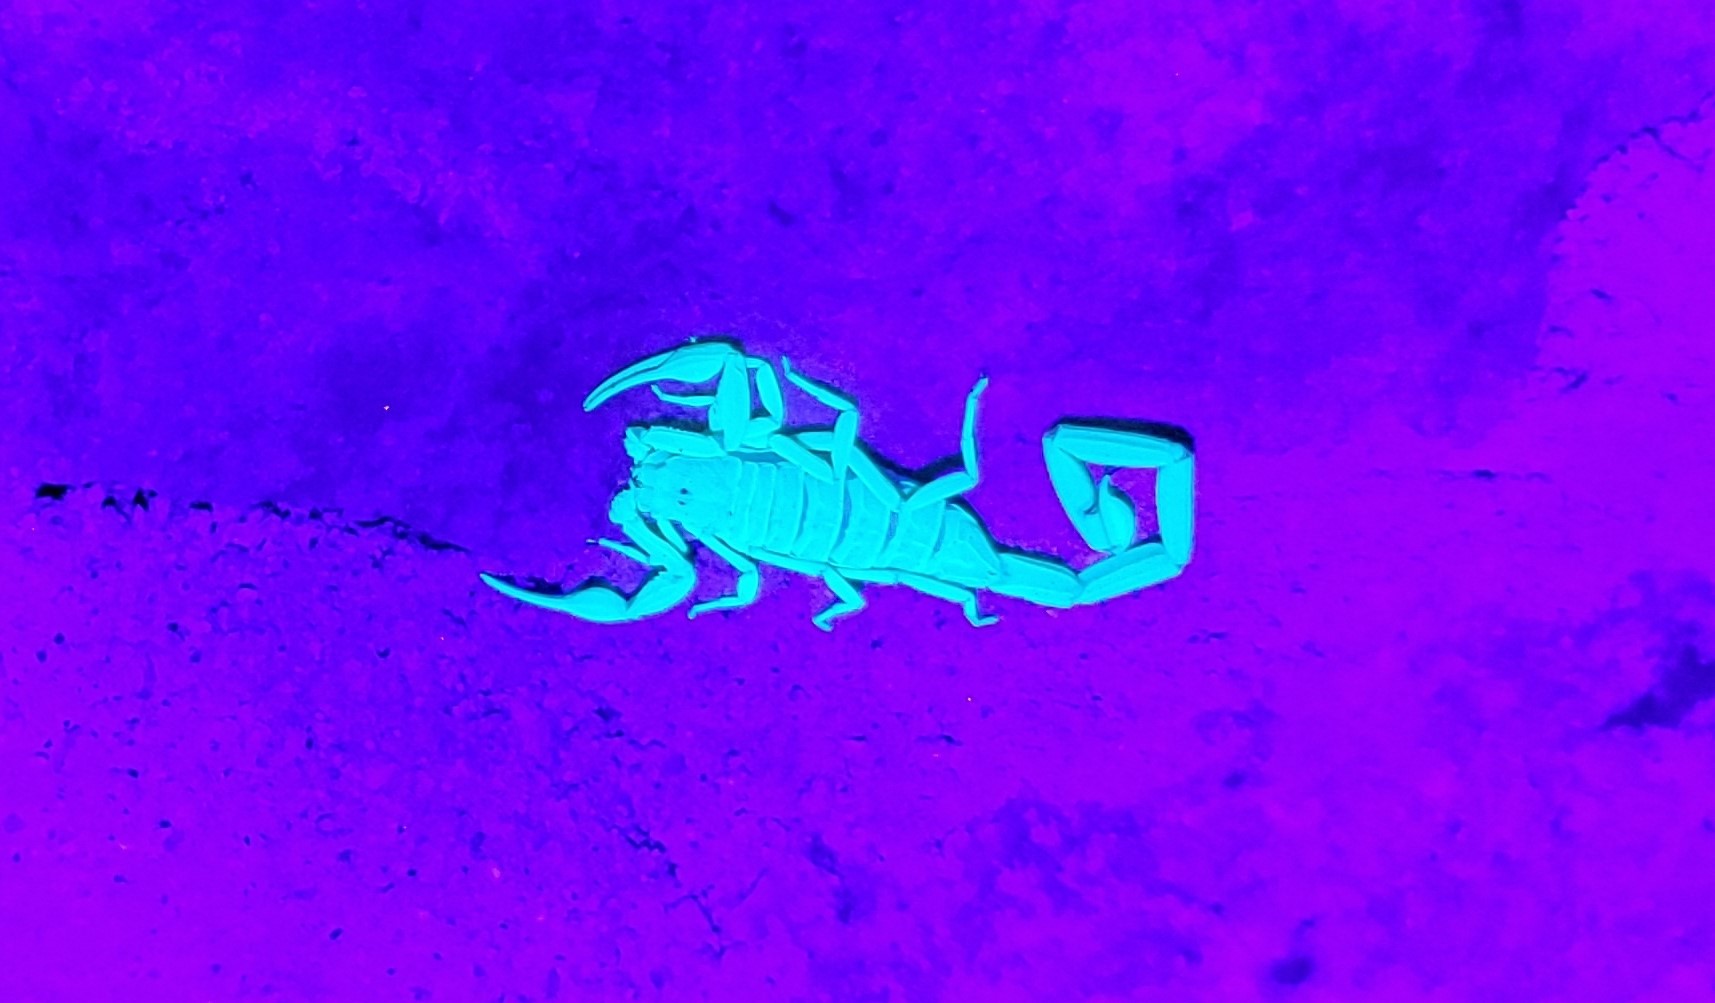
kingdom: Animalia
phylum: Arthropoda
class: Arachnida
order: Scorpiones
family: Buthidae
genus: Centruroides
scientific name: Centruroides exilicauda
